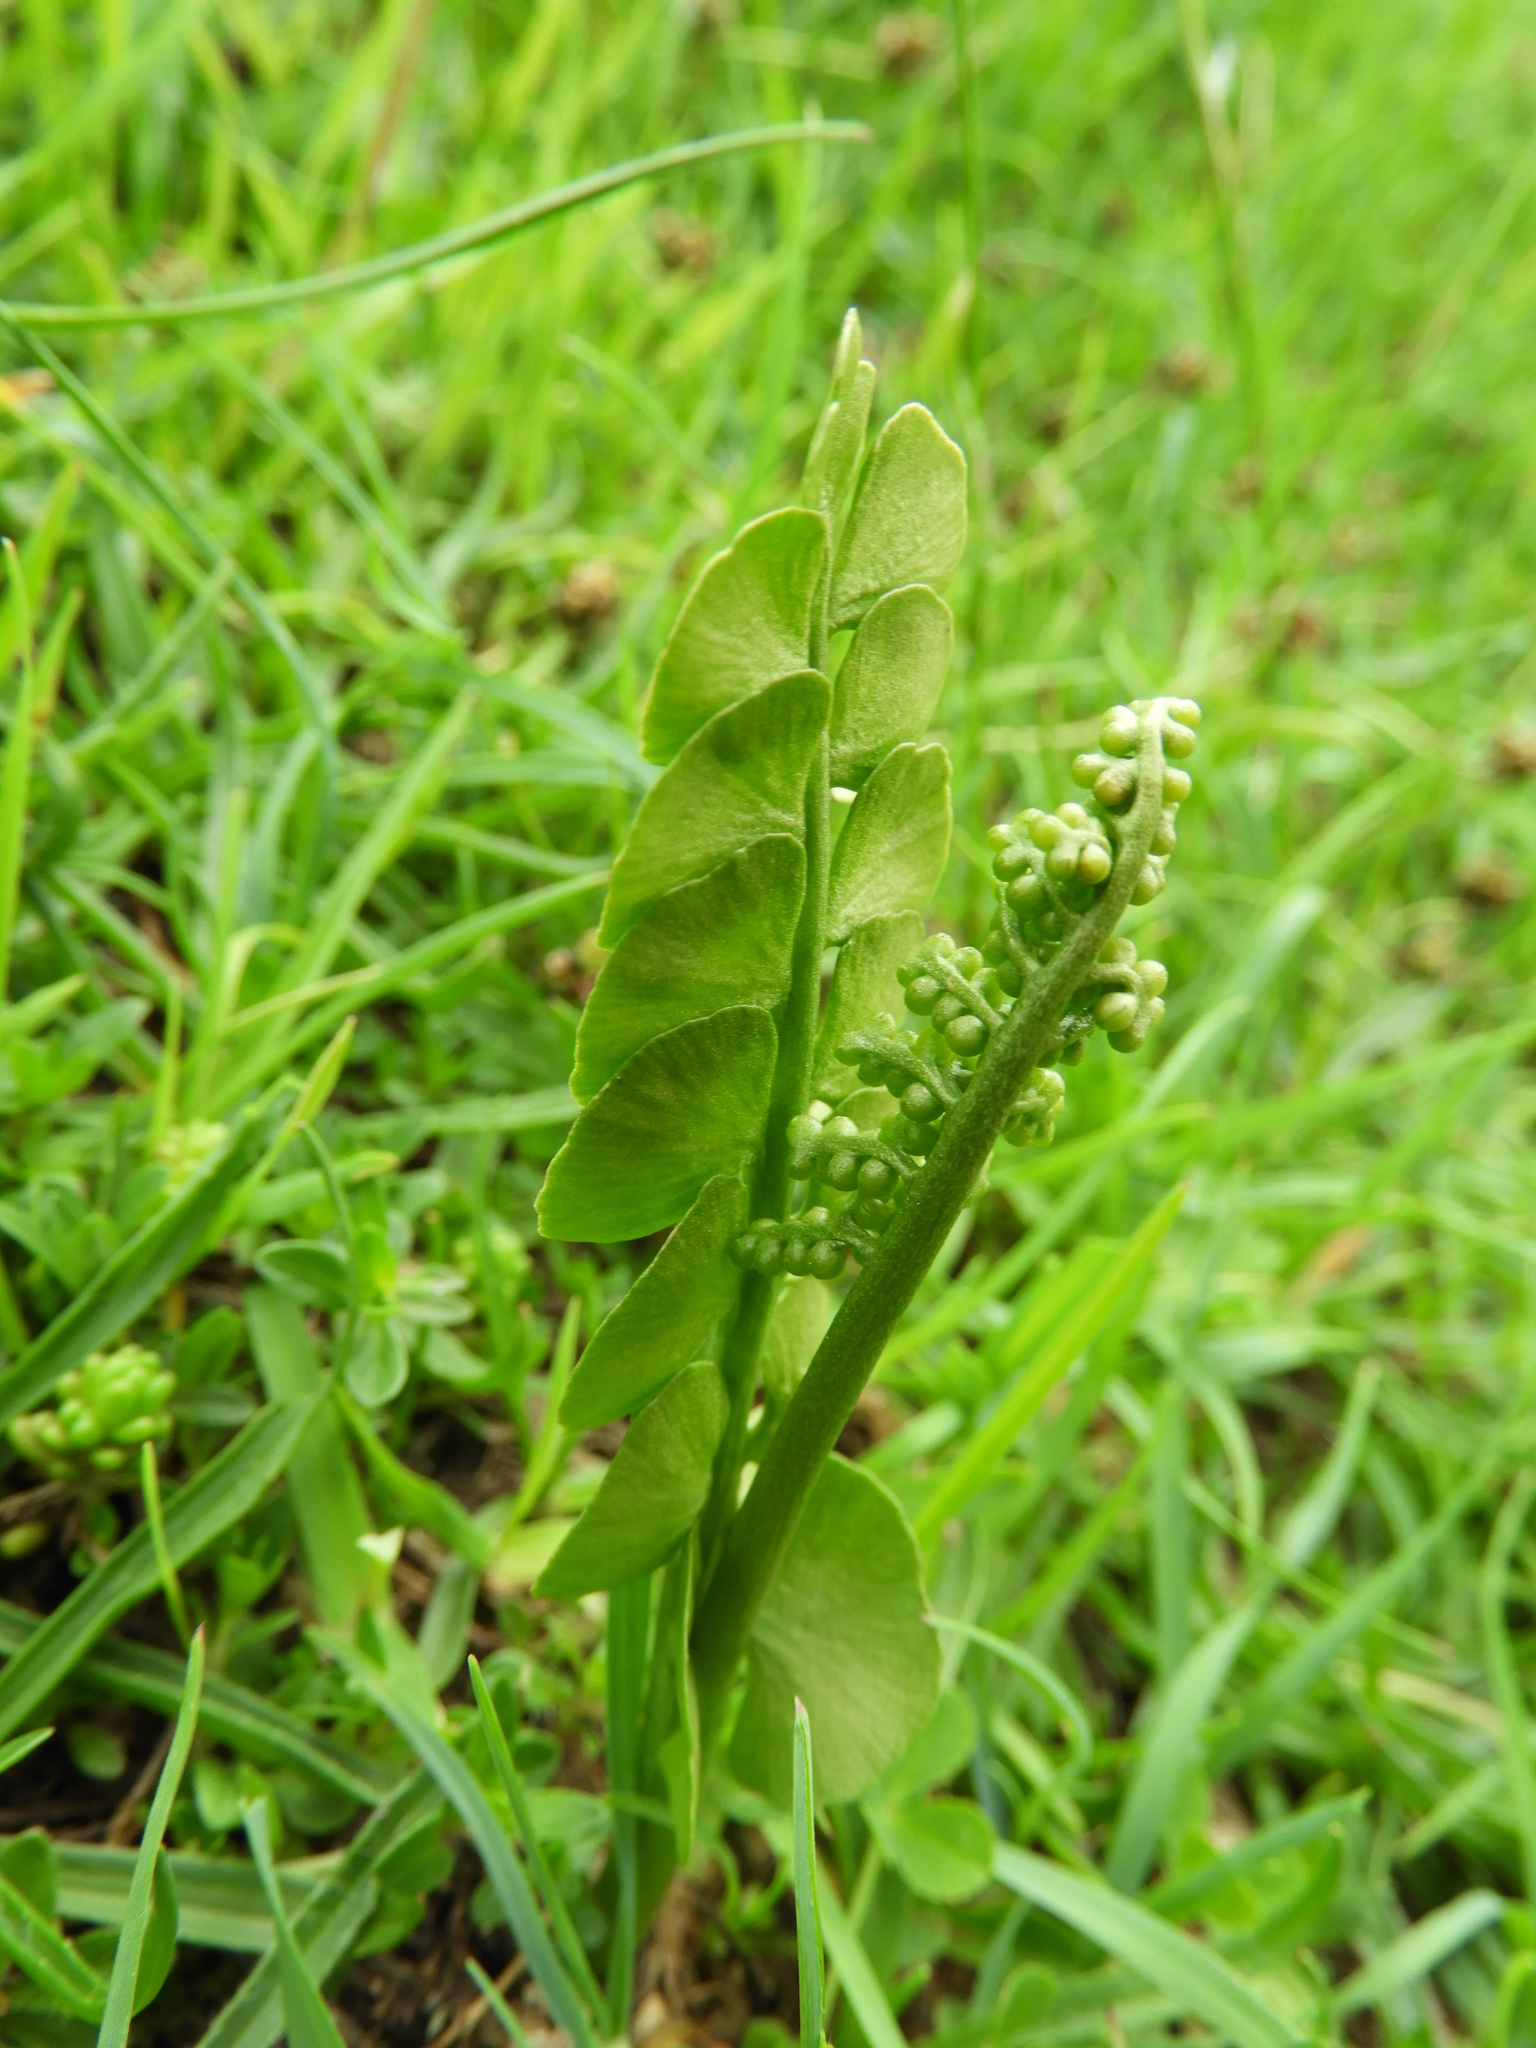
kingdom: Plantae
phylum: Tracheophyta
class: Polypodiopsida
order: Ophioglossales
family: Ophioglossaceae
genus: Botrychium
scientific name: Botrychium lunaria
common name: Moonwort
